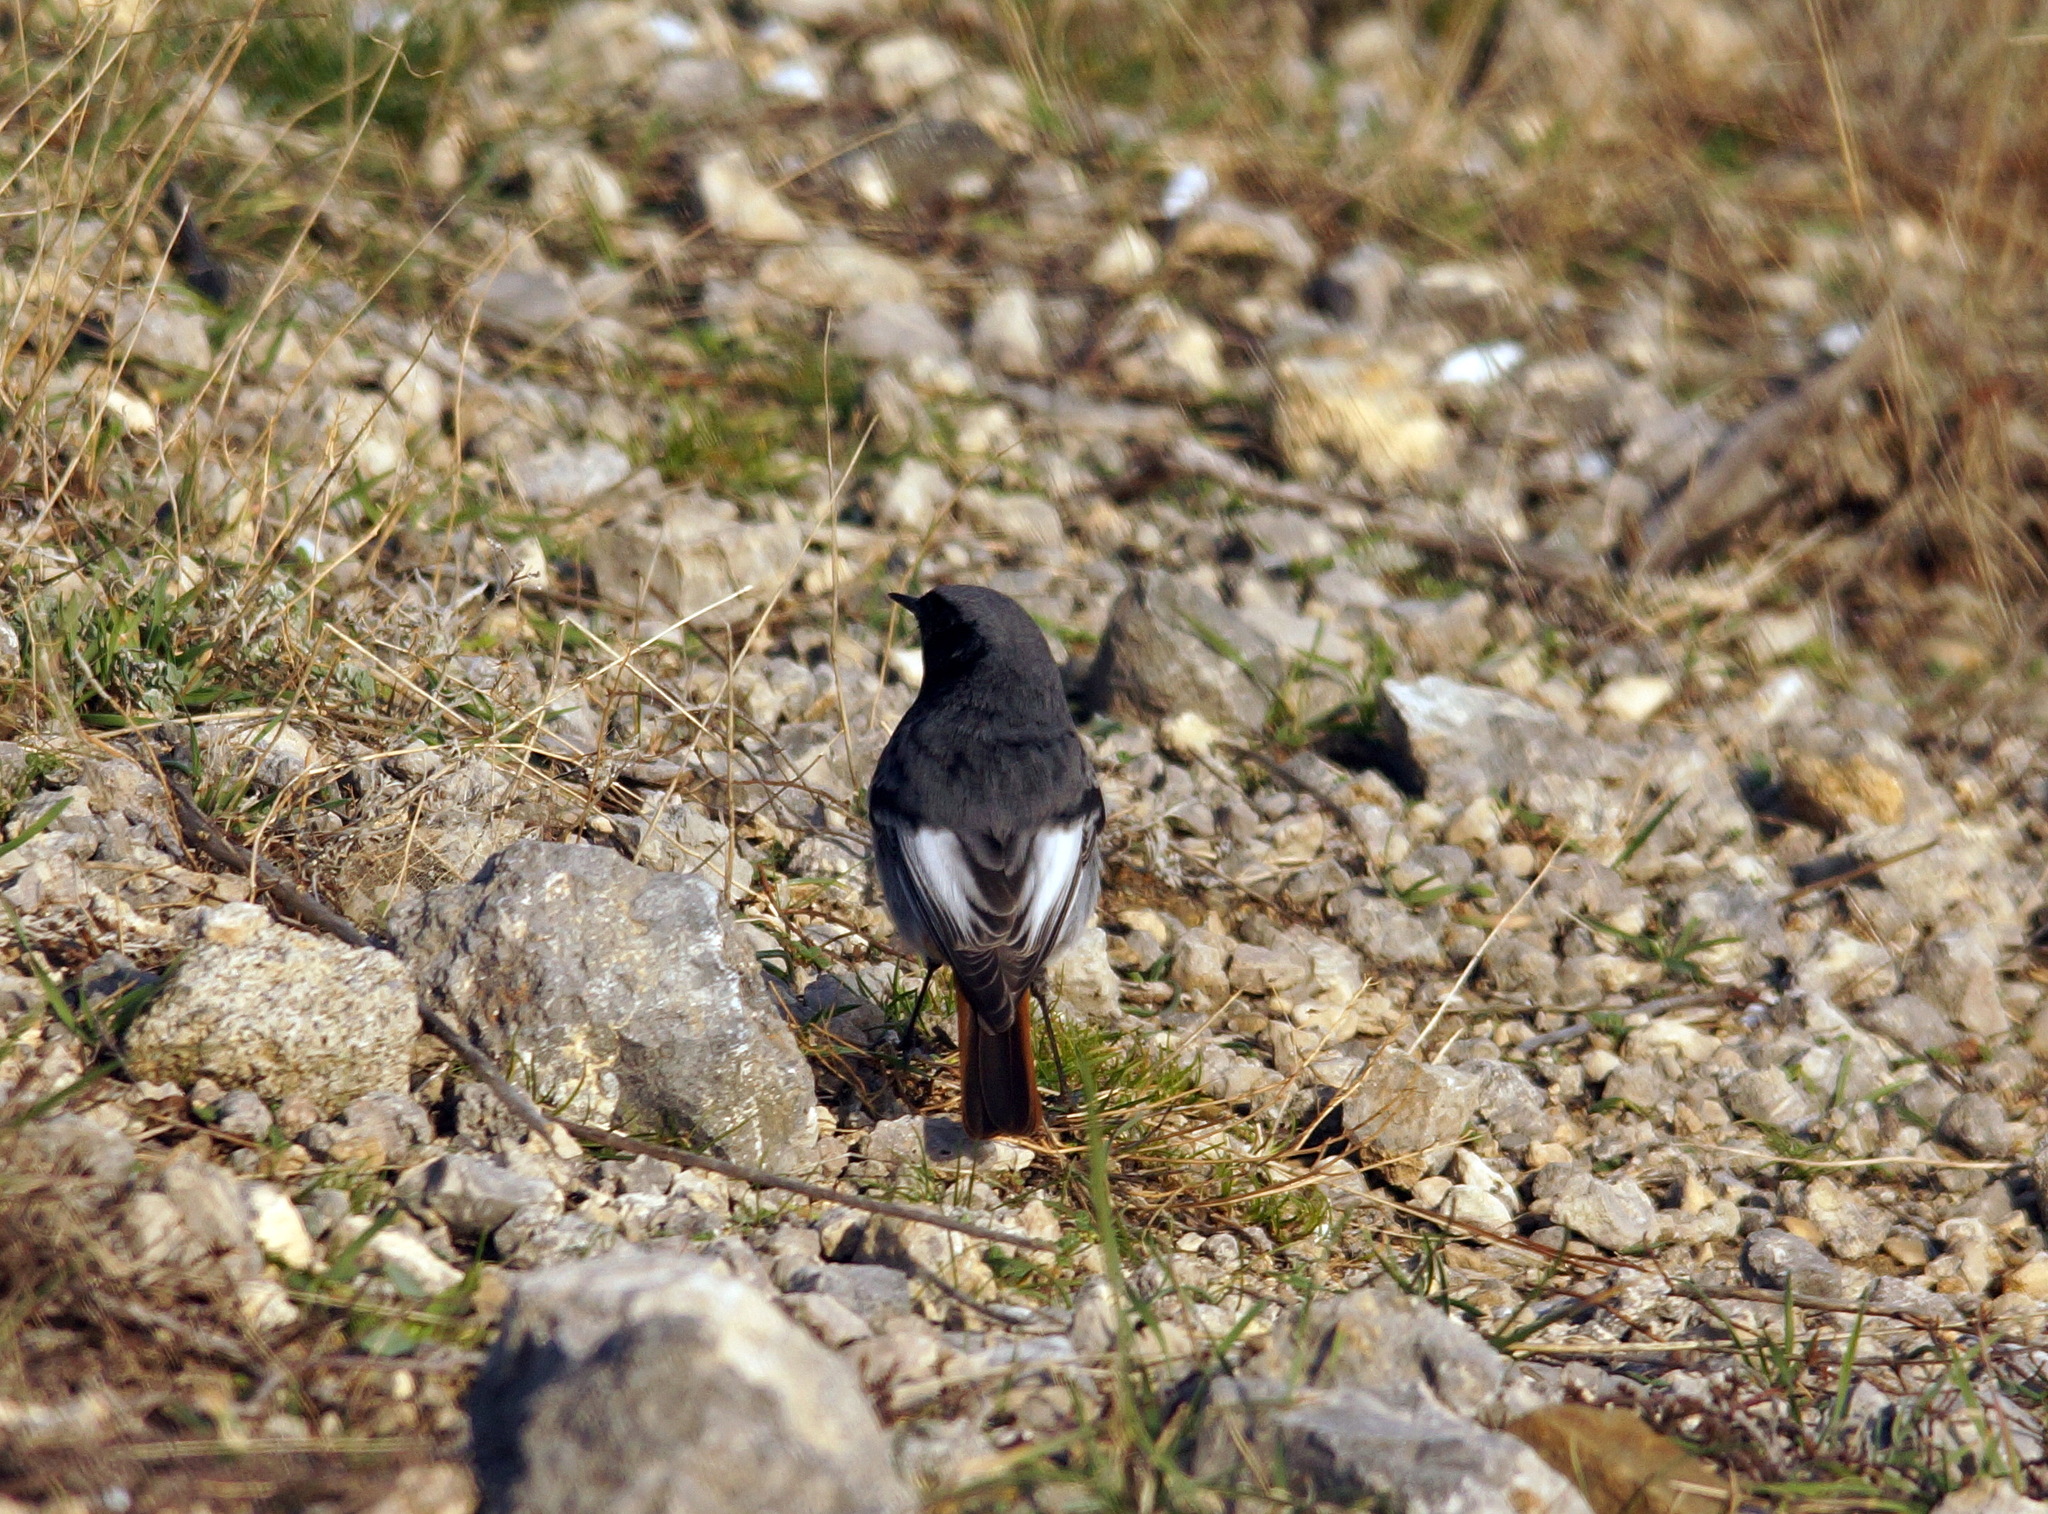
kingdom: Animalia
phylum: Chordata
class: Aves
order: Passeriformes
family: Muscicapidae
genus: Phoenicurus
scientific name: Phoenicurus ochruros
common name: Black redstart
